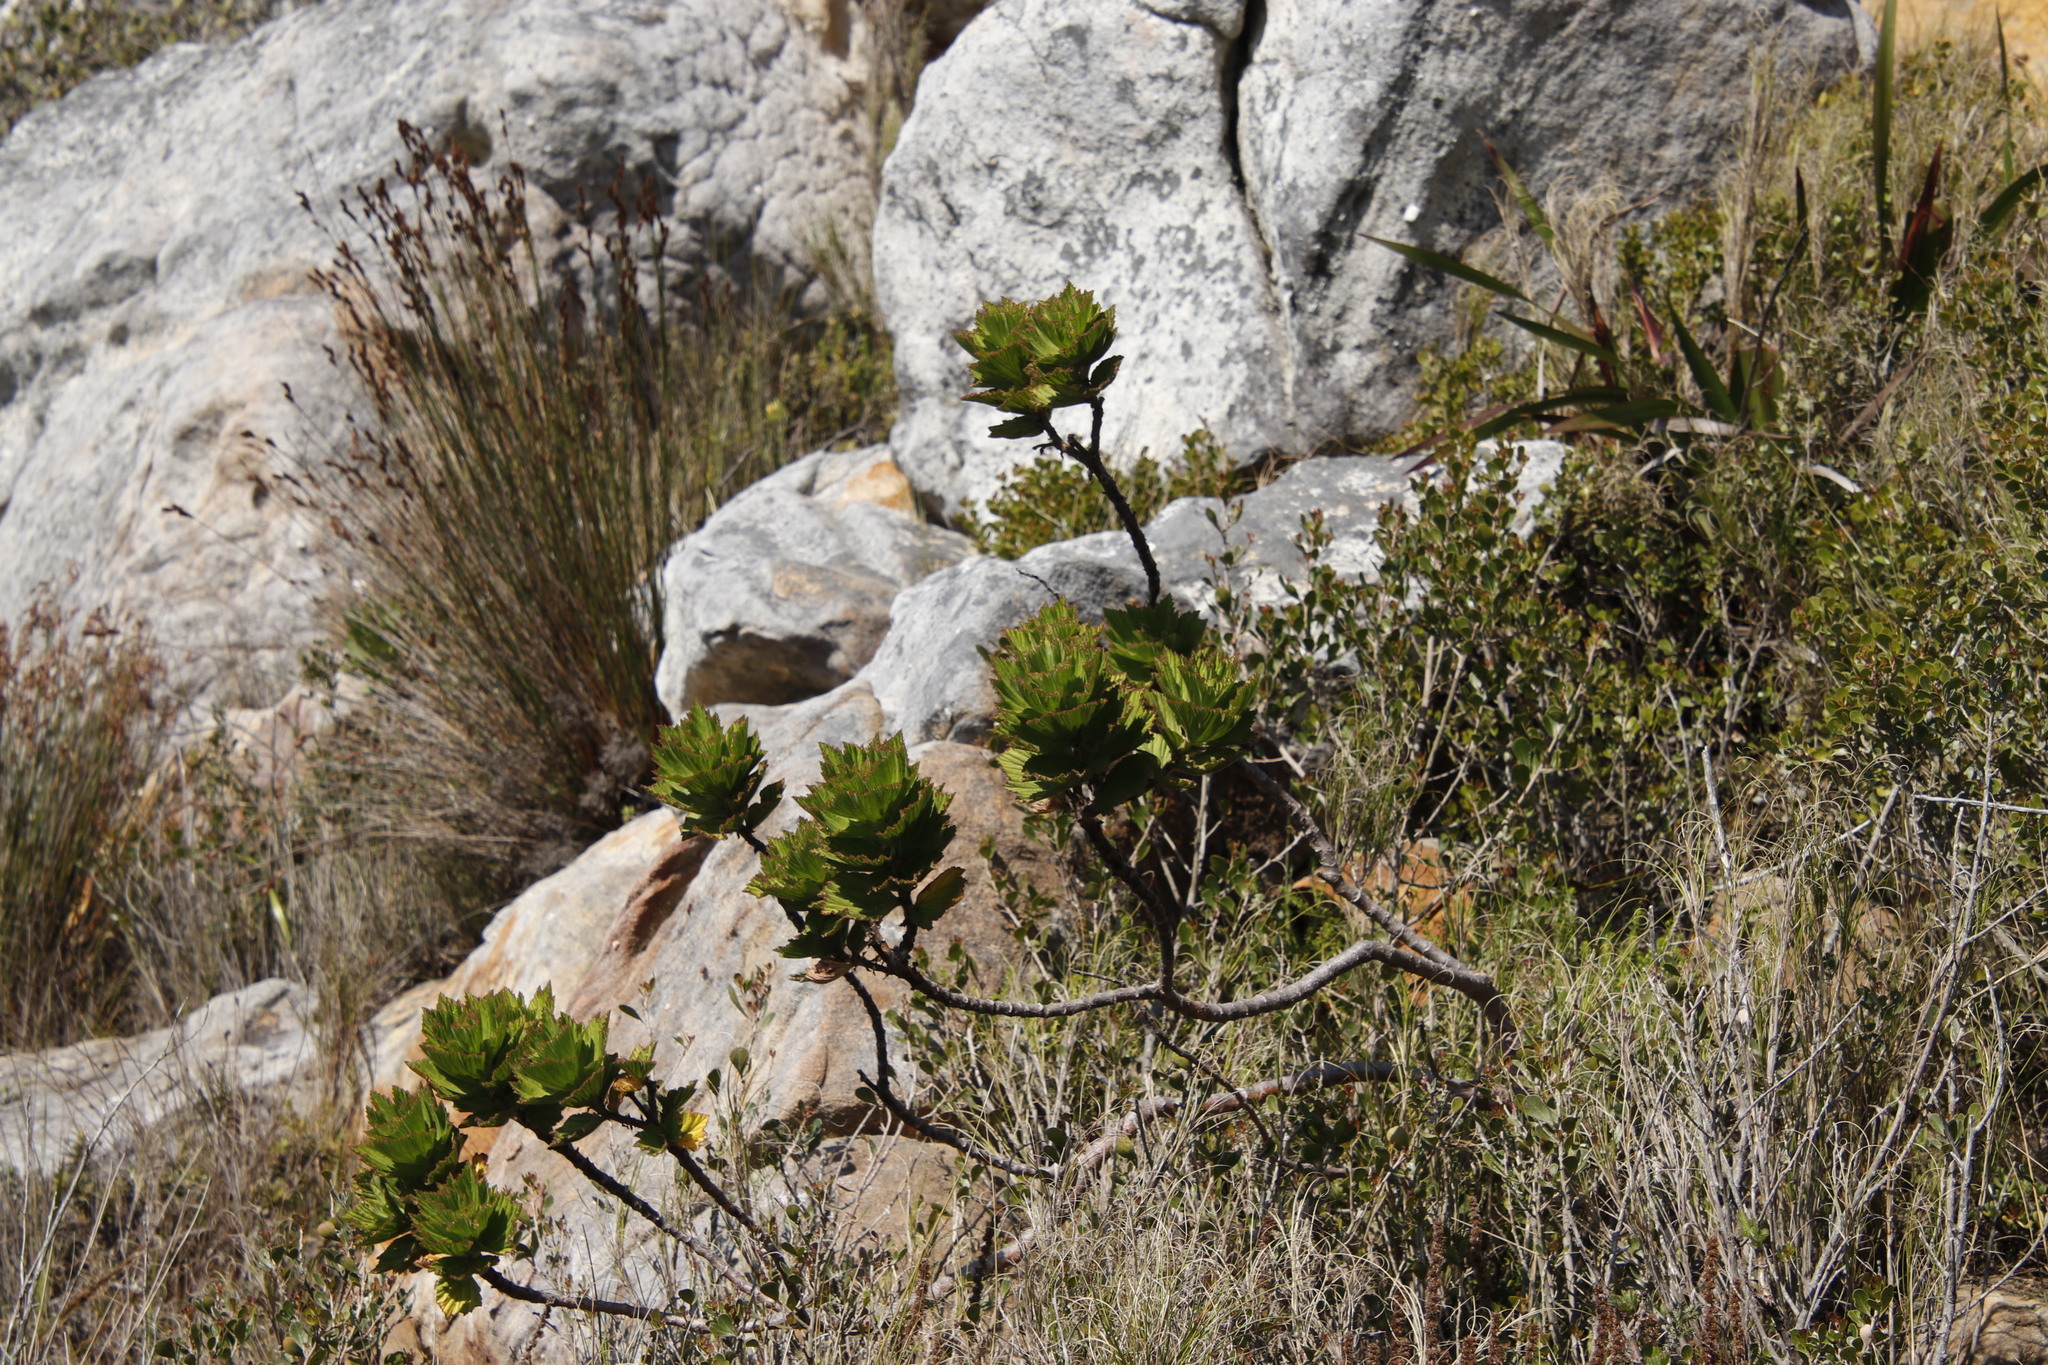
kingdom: Plantae
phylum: Tracheophyta
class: Magnoliopsida
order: Geraniales
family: Geraniaceae
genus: Pelargonium
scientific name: Pelargonium cucullatum
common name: Tree pelargonium
